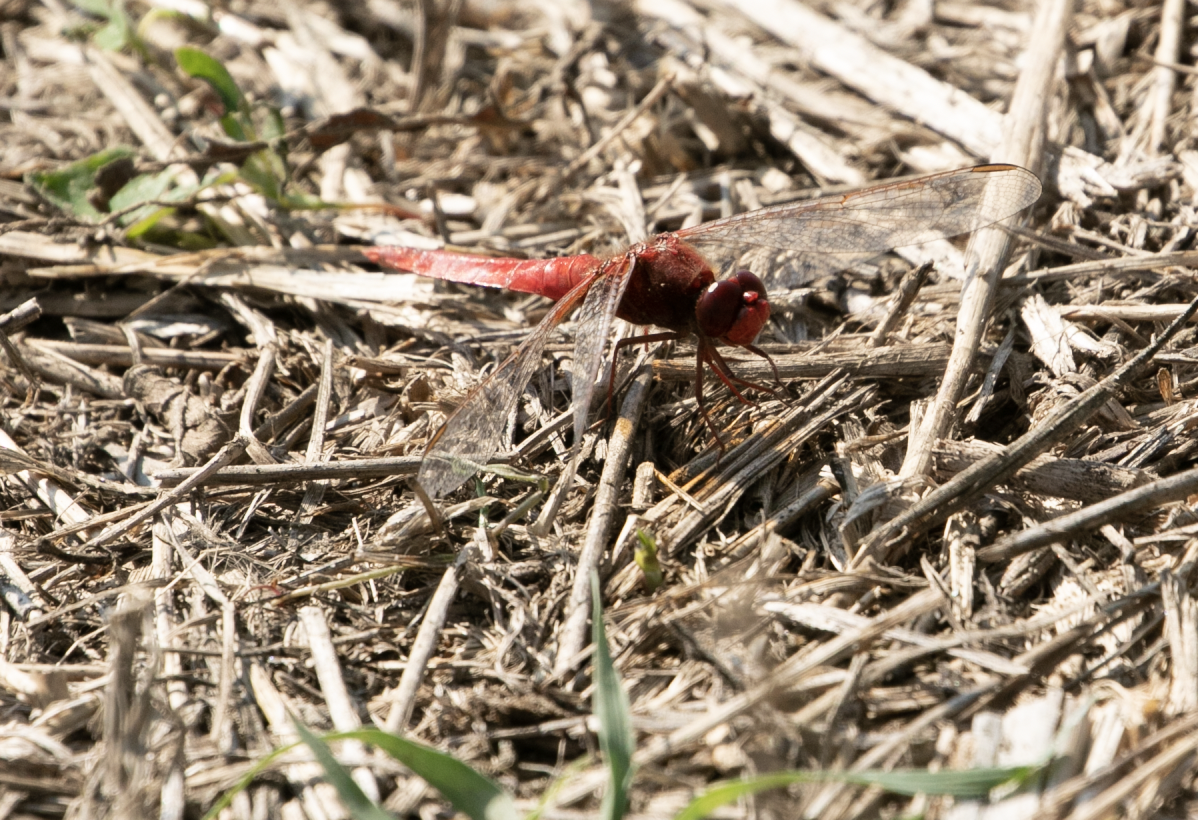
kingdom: Animalia
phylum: Arthropoda
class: Insecta
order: Odonata
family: Libellulidae
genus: Crocothemis
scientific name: Crocothemis erythraea
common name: Scarlet dragonfly
